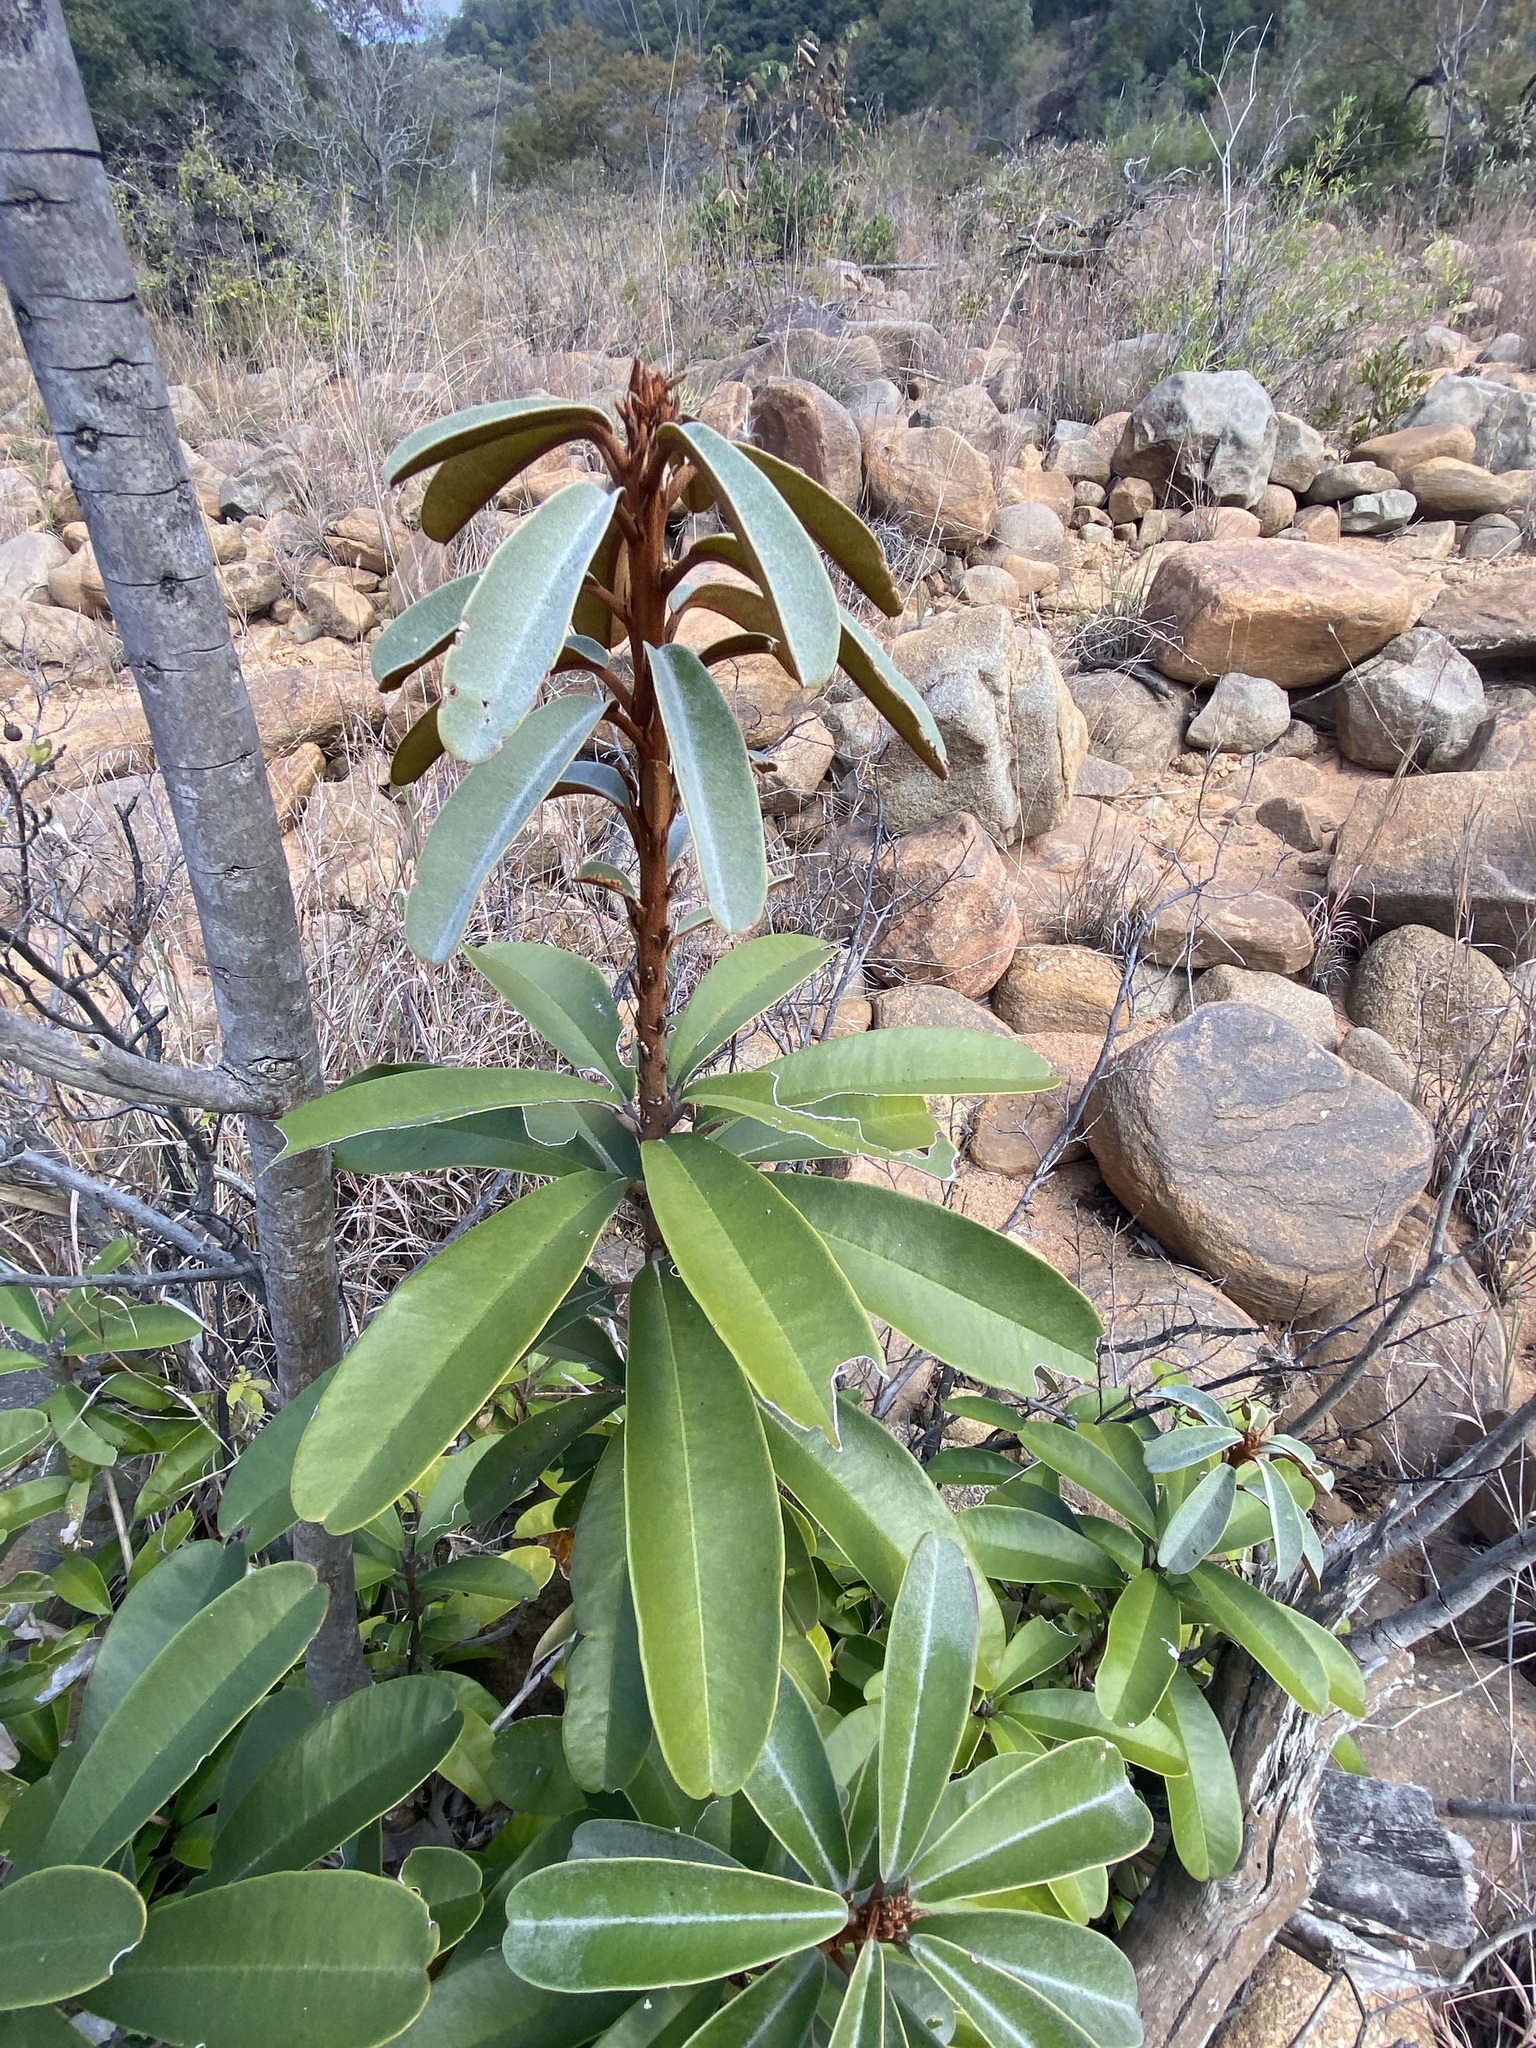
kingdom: Plantae
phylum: Tracheophyta
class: Magnoliopsida
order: Ericales
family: Sapotaceae
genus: Englerophytum
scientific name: Englerophytum magalismontanum
